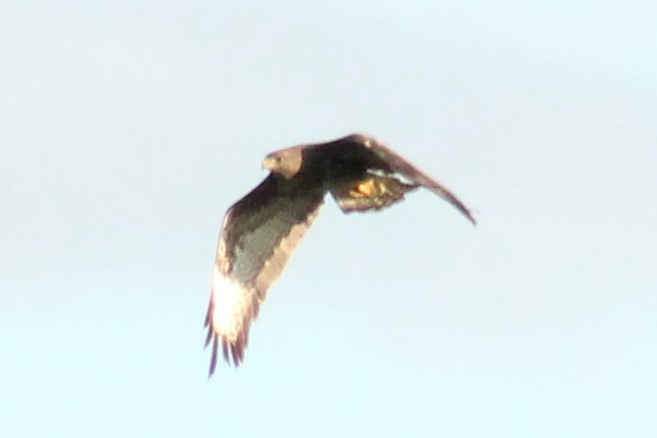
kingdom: Animalia
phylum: Chordata
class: Aves
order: Accipitriformes
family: Accipitridae
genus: Buteo
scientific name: Buteo buteo
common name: Common buzzard
